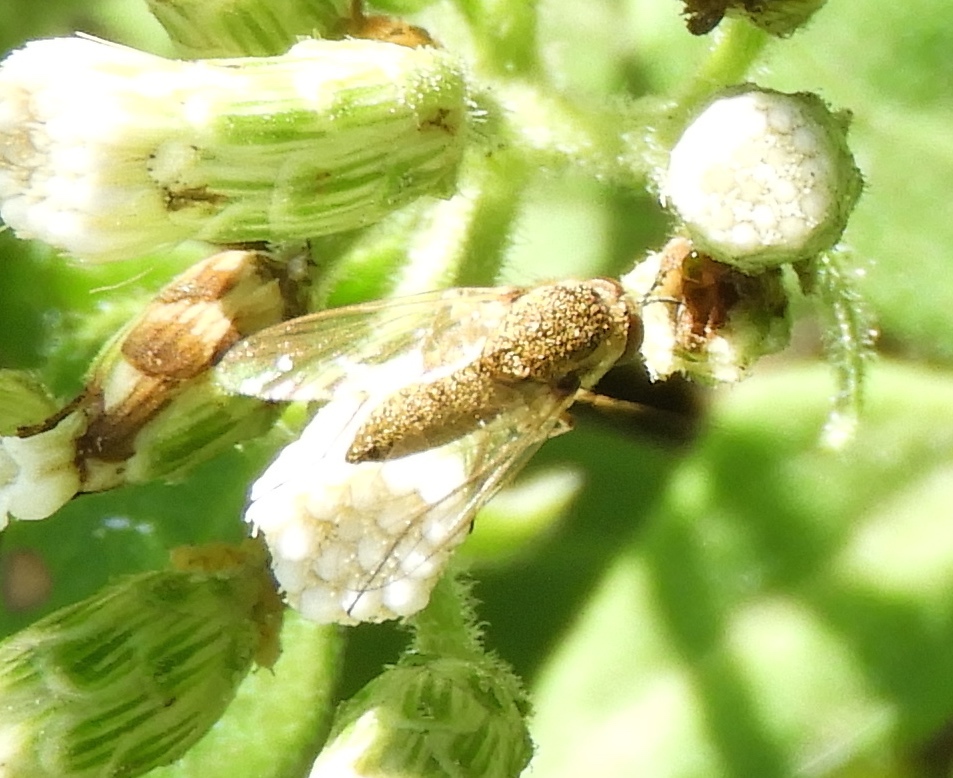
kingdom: Animalia
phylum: Arthropoda
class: Insecta
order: Diptera
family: Bombyliidae
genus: Geron
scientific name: Geron
